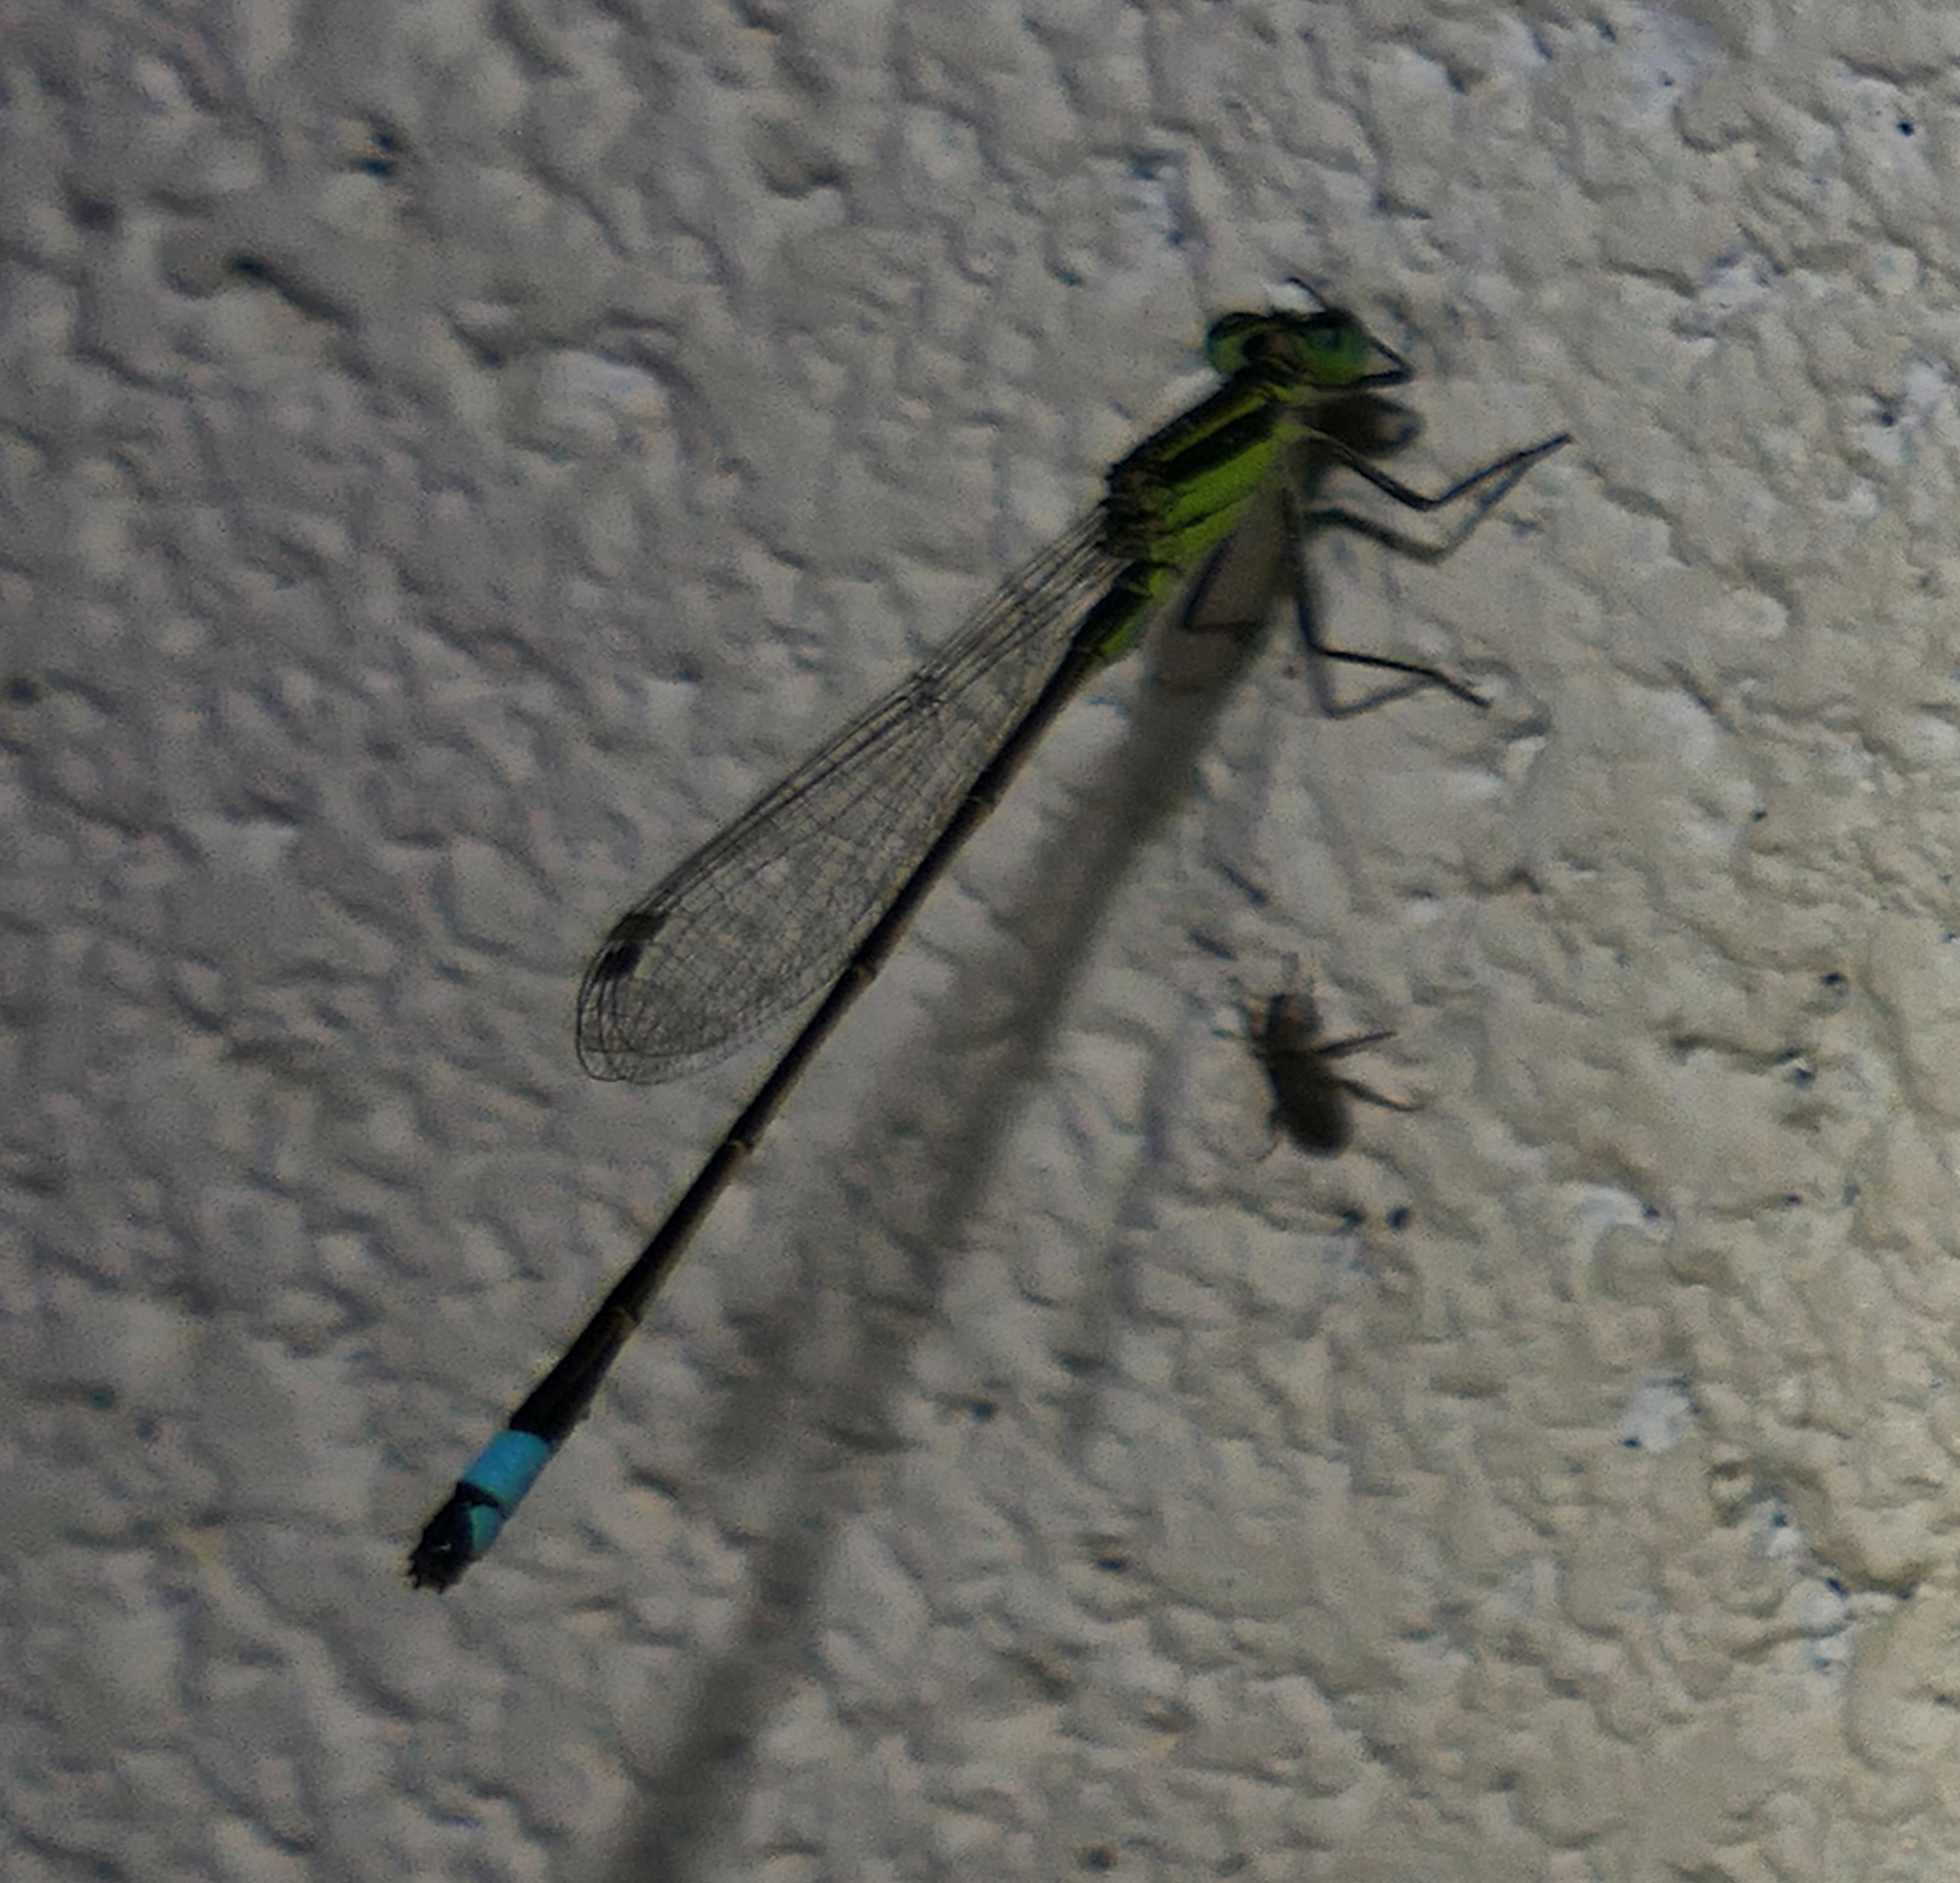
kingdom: Animalia
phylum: Arthropoda
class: Insecta
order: Odonata
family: Coenagrionidae
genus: Ischnura
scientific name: Ischnura ramburii
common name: Rambur's forktail
